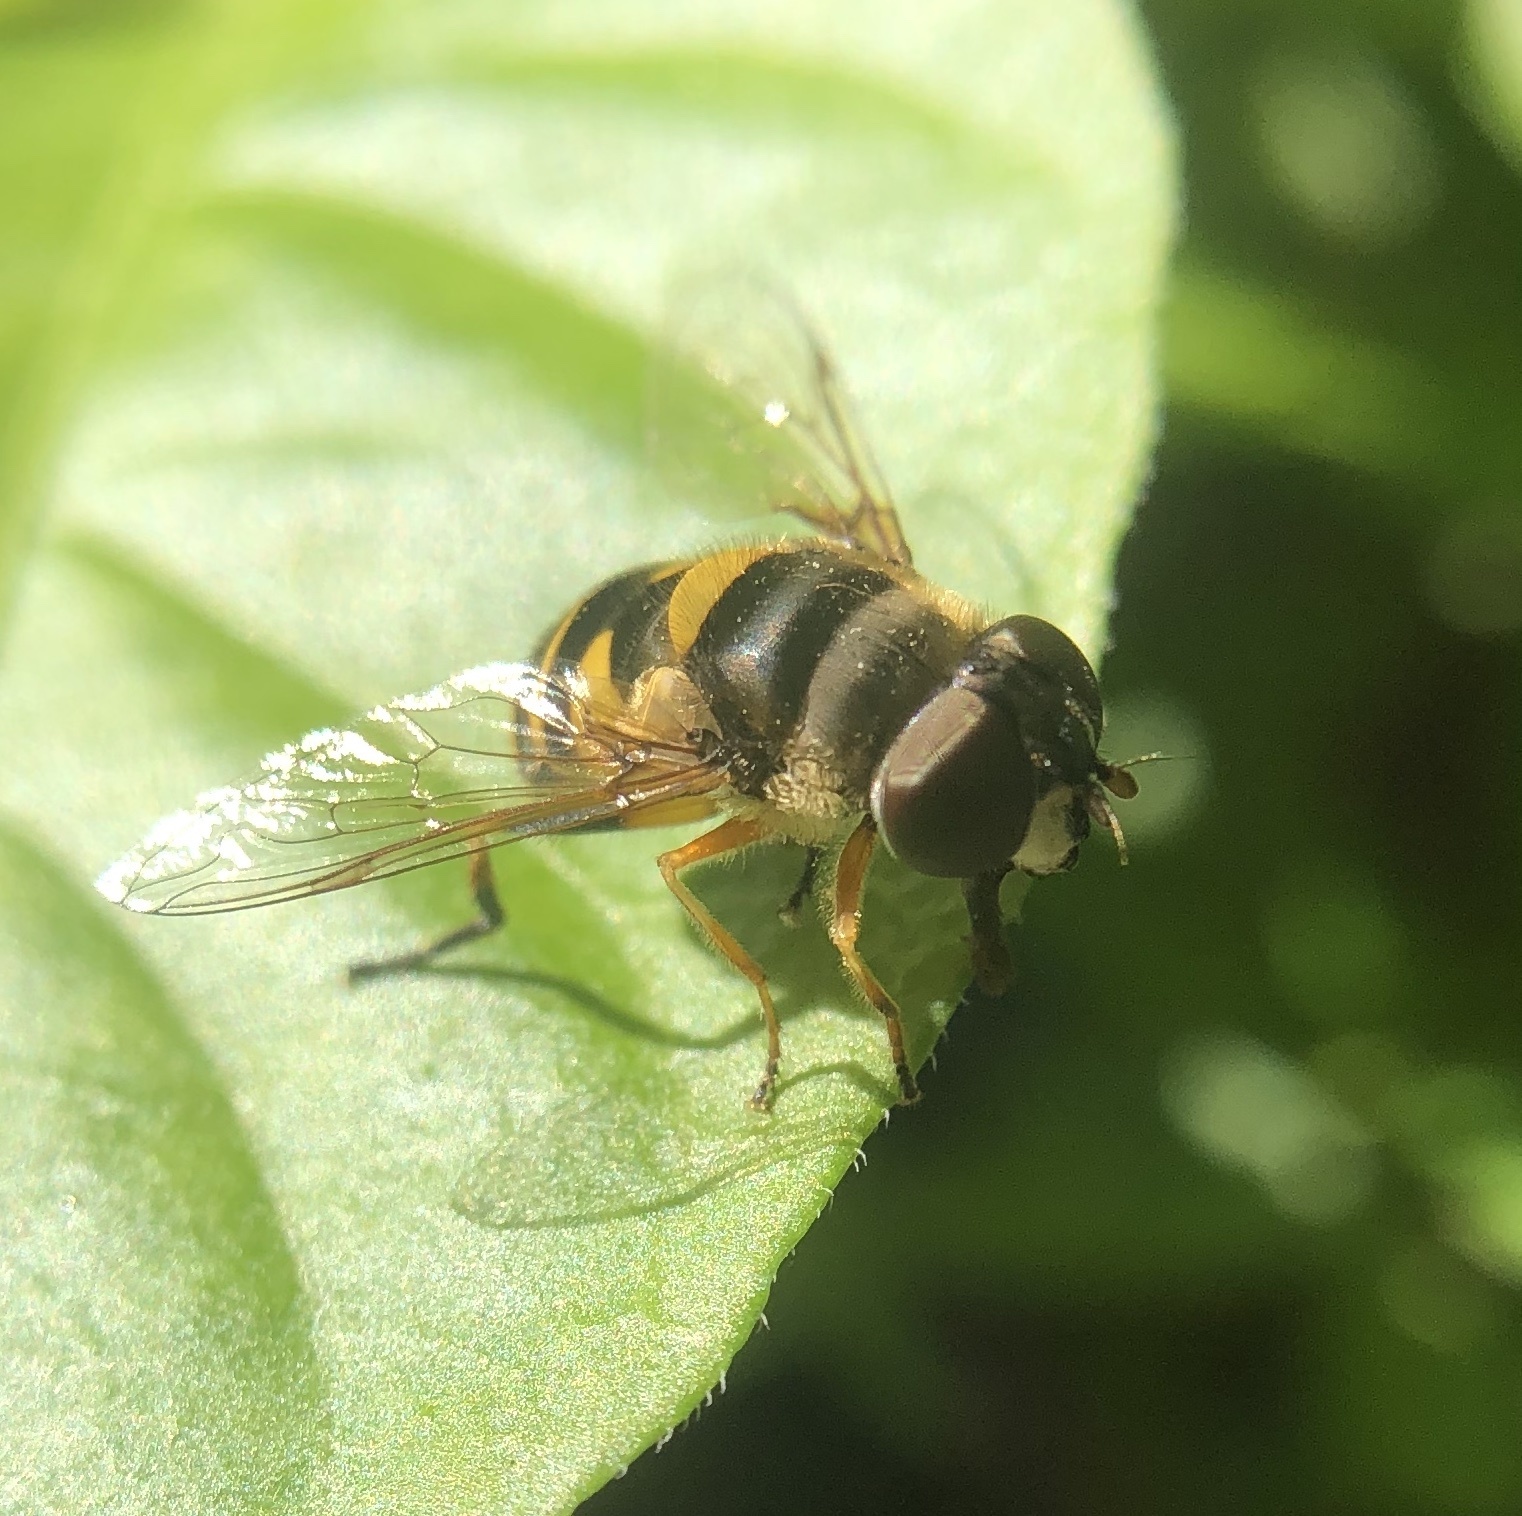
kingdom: Animalia
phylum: Arthropoda
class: Insecta
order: Diptera
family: Syrphidae
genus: Eristalis
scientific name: Eristalis transversa
